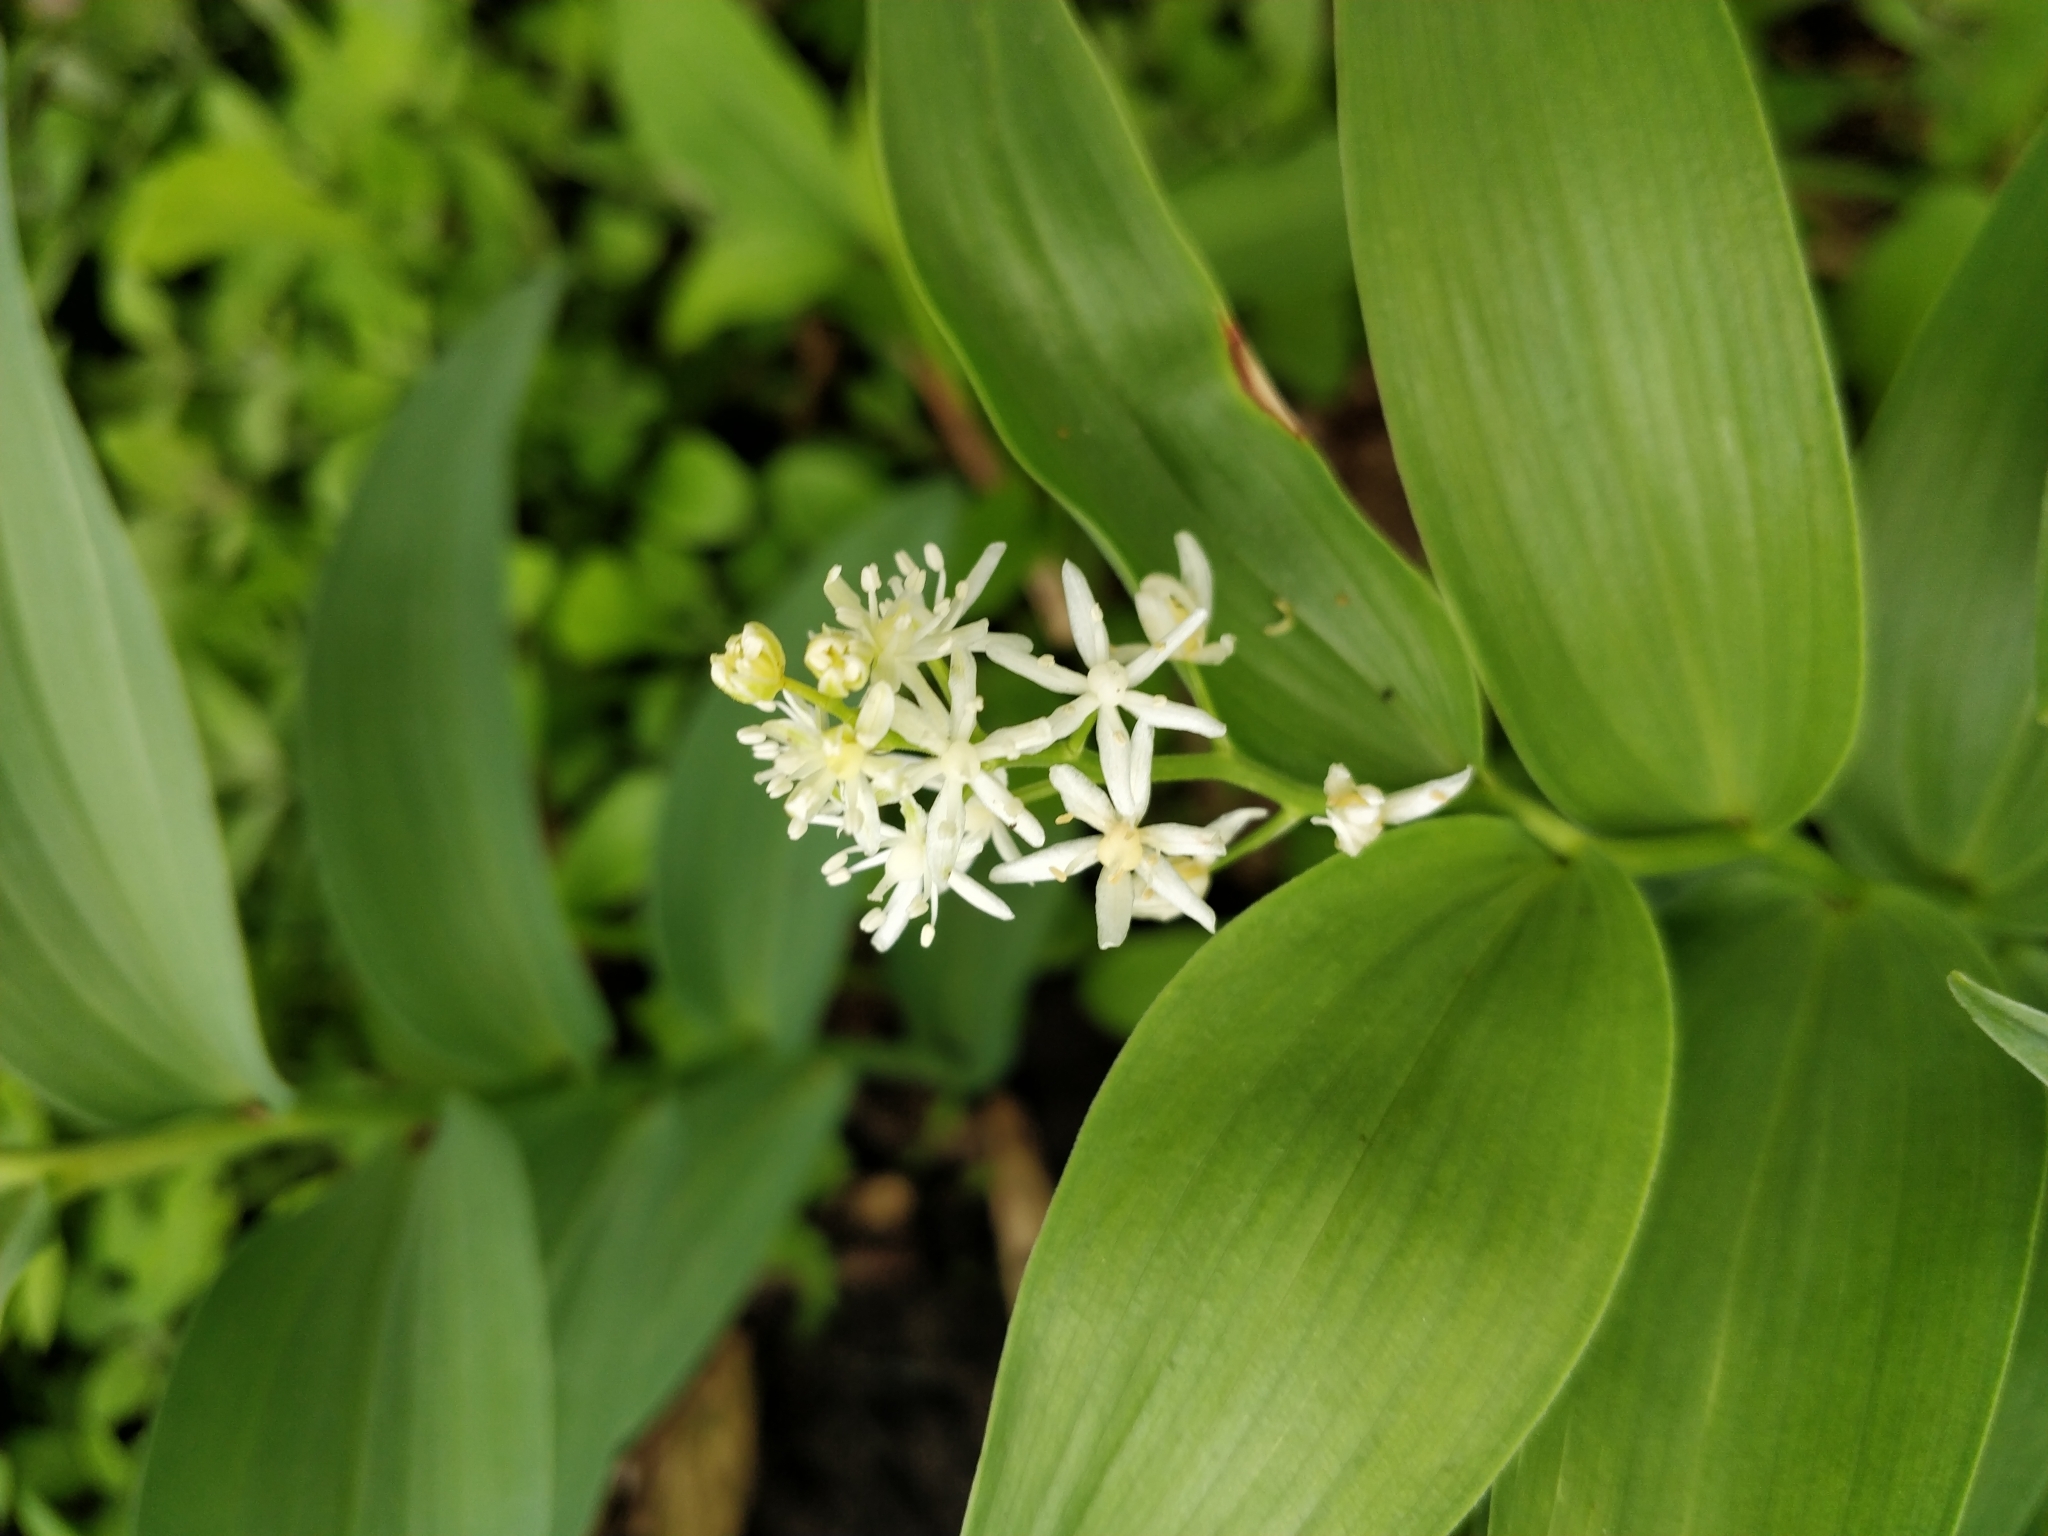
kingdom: Plantae
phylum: Tracheophyta
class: Liliopsida
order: Asparagales
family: Asparagaceae
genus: Maianthemum
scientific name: Maianthemum stellatum
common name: Little false solomon's seal
